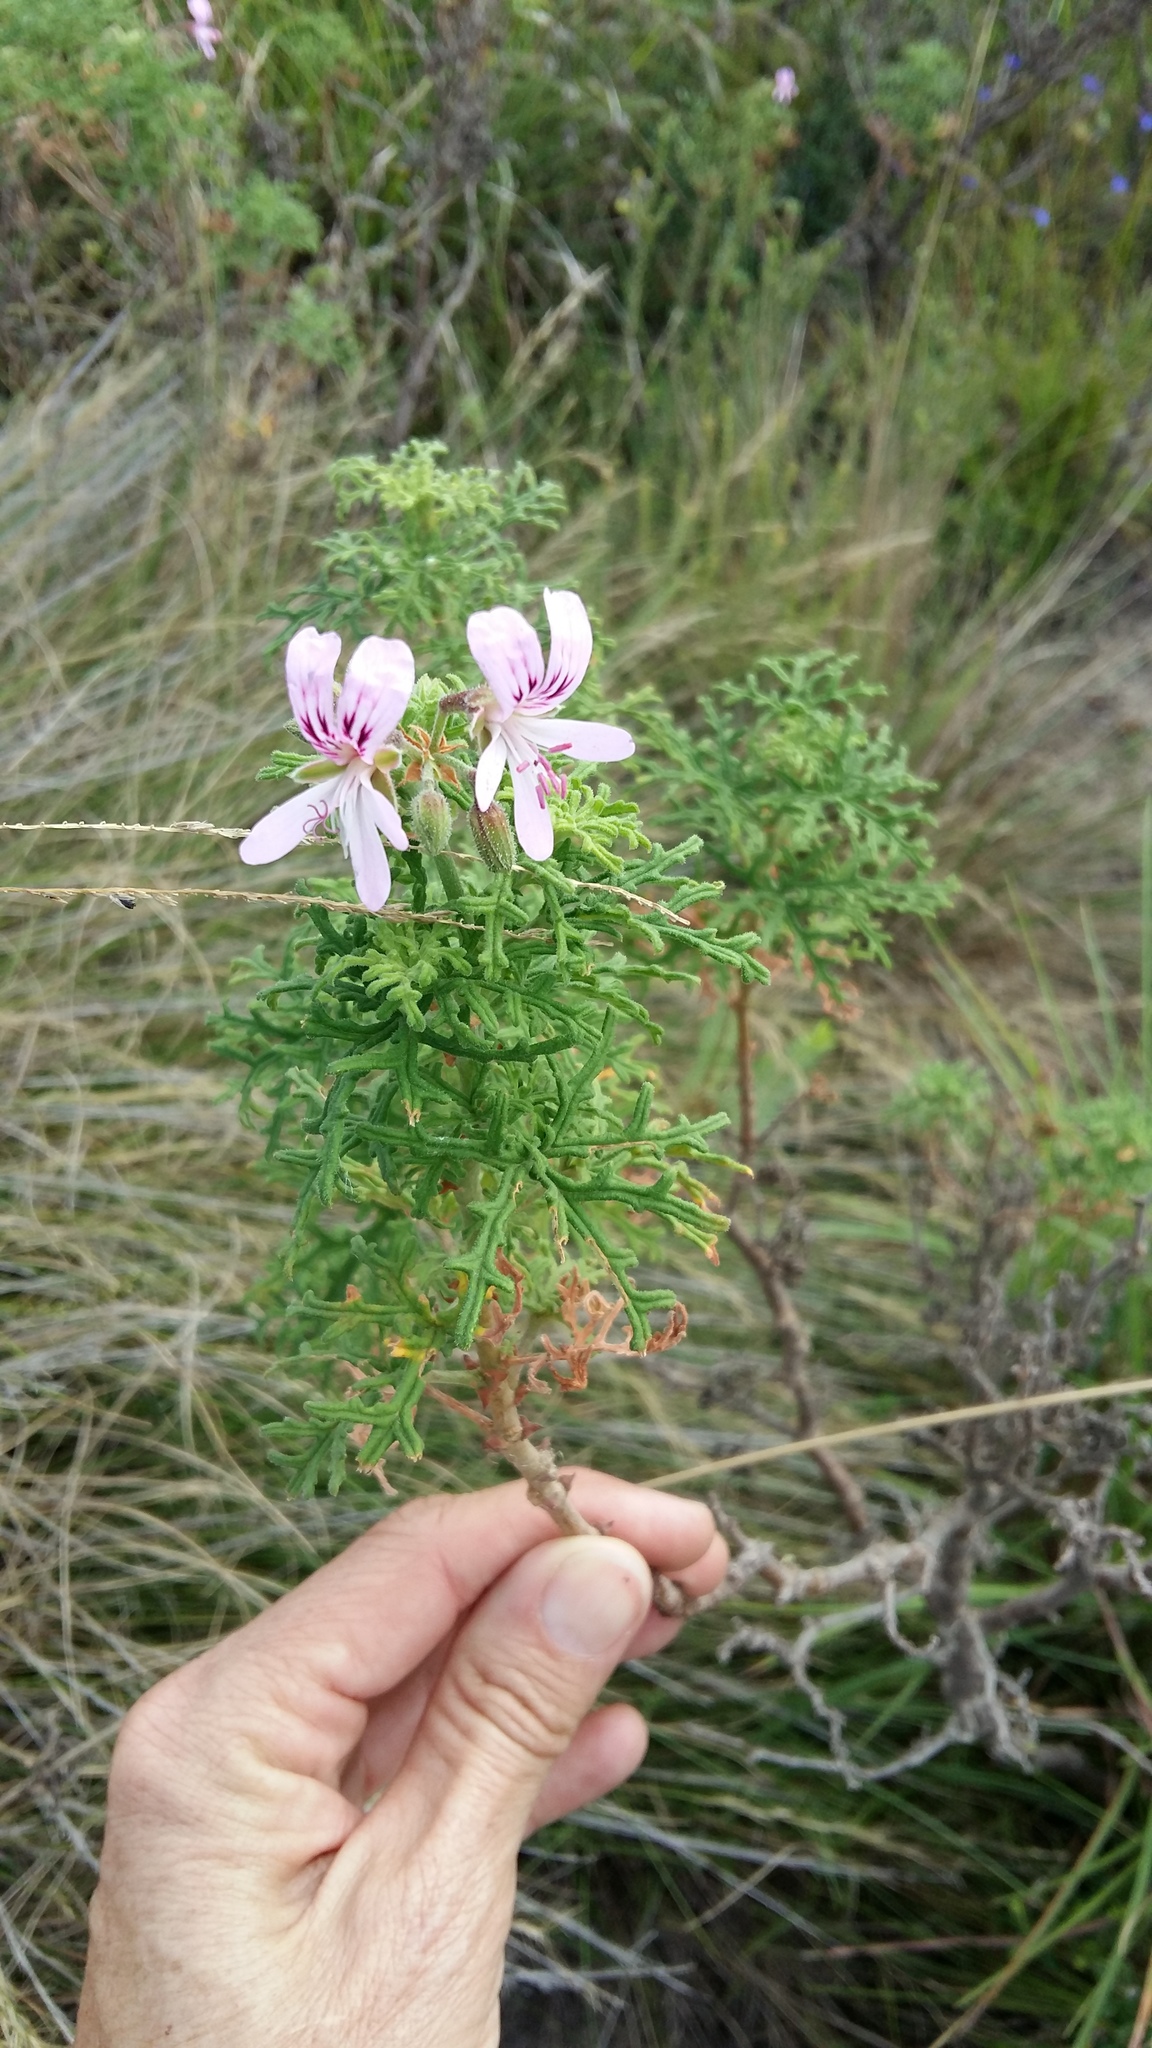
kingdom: Plantae
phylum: Tracheophyta
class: Magnoliopsida
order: Geraniales
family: Geraniaceae
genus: Pelargonium
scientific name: Pelargonium radens
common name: Rasp-leaf pelargonium
